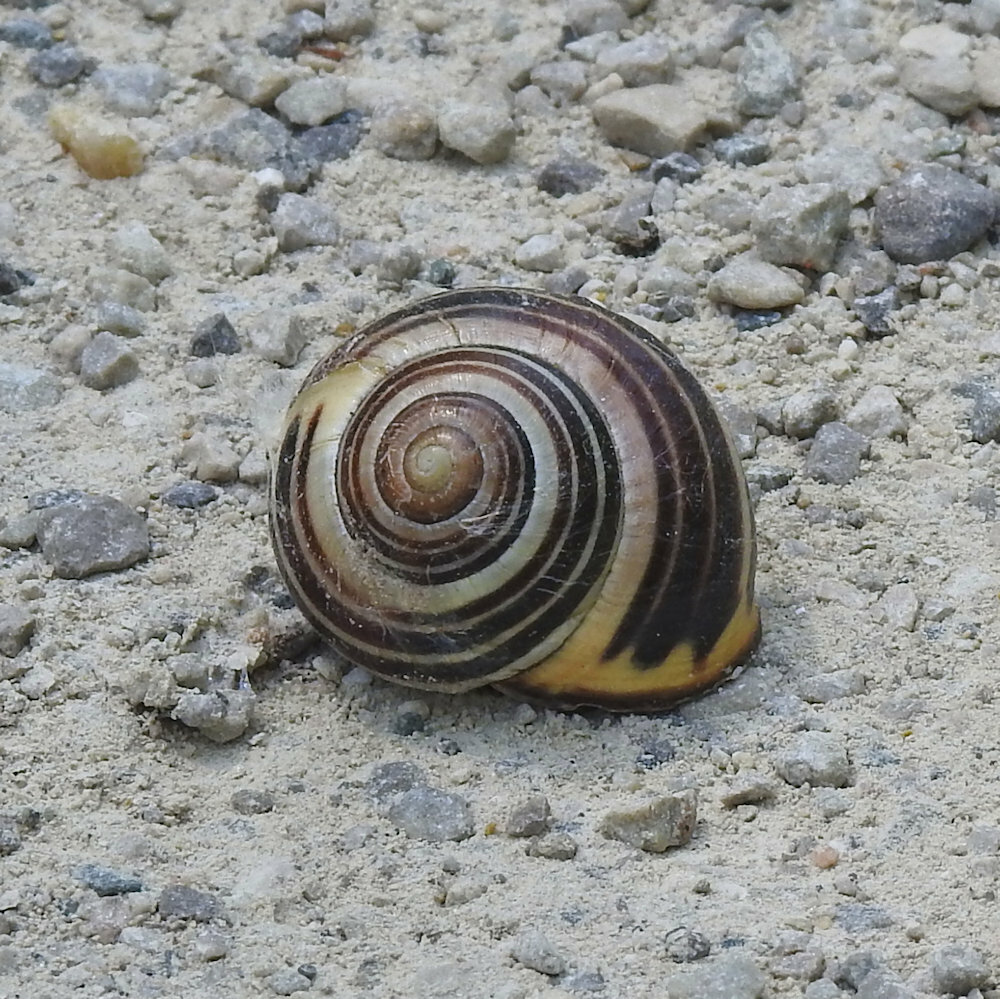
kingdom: Animalia
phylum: Mollusca
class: Gastropoda
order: Stylommatophora
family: Helicidae
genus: Cepaea
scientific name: Cepaea nemoralis
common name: Grovesnail
